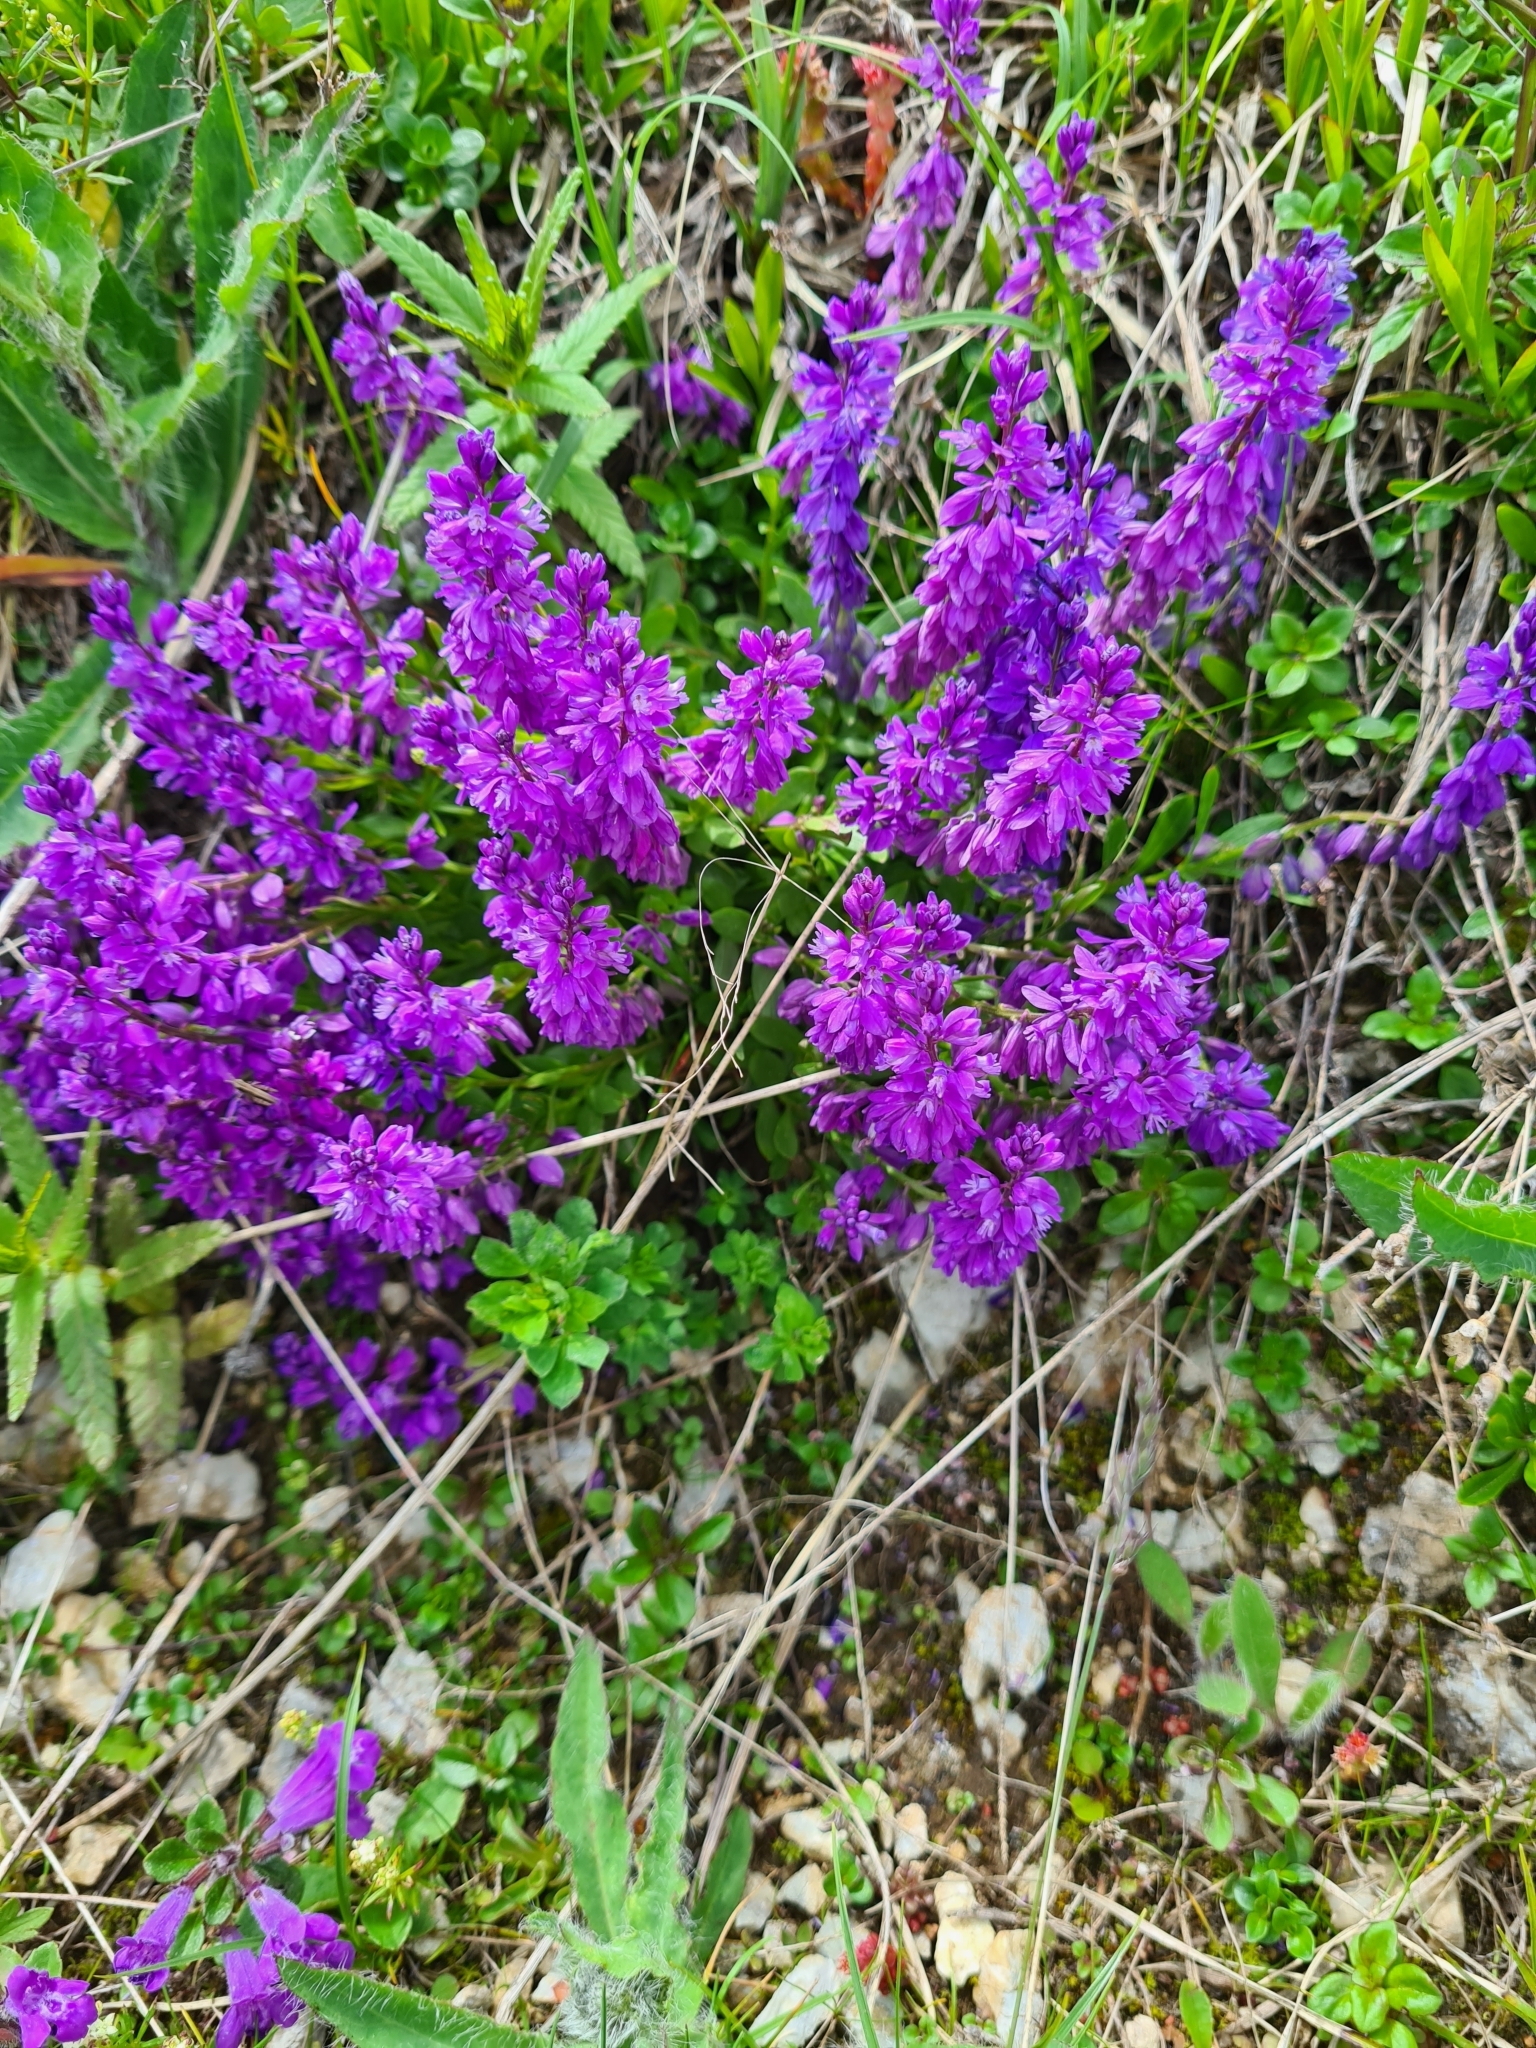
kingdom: Plantae
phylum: Tracheophyta
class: Magnoliopsida
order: Fabales
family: Polygalaceae
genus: Polygala
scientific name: Polygala vulgaris
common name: Common milkwort
